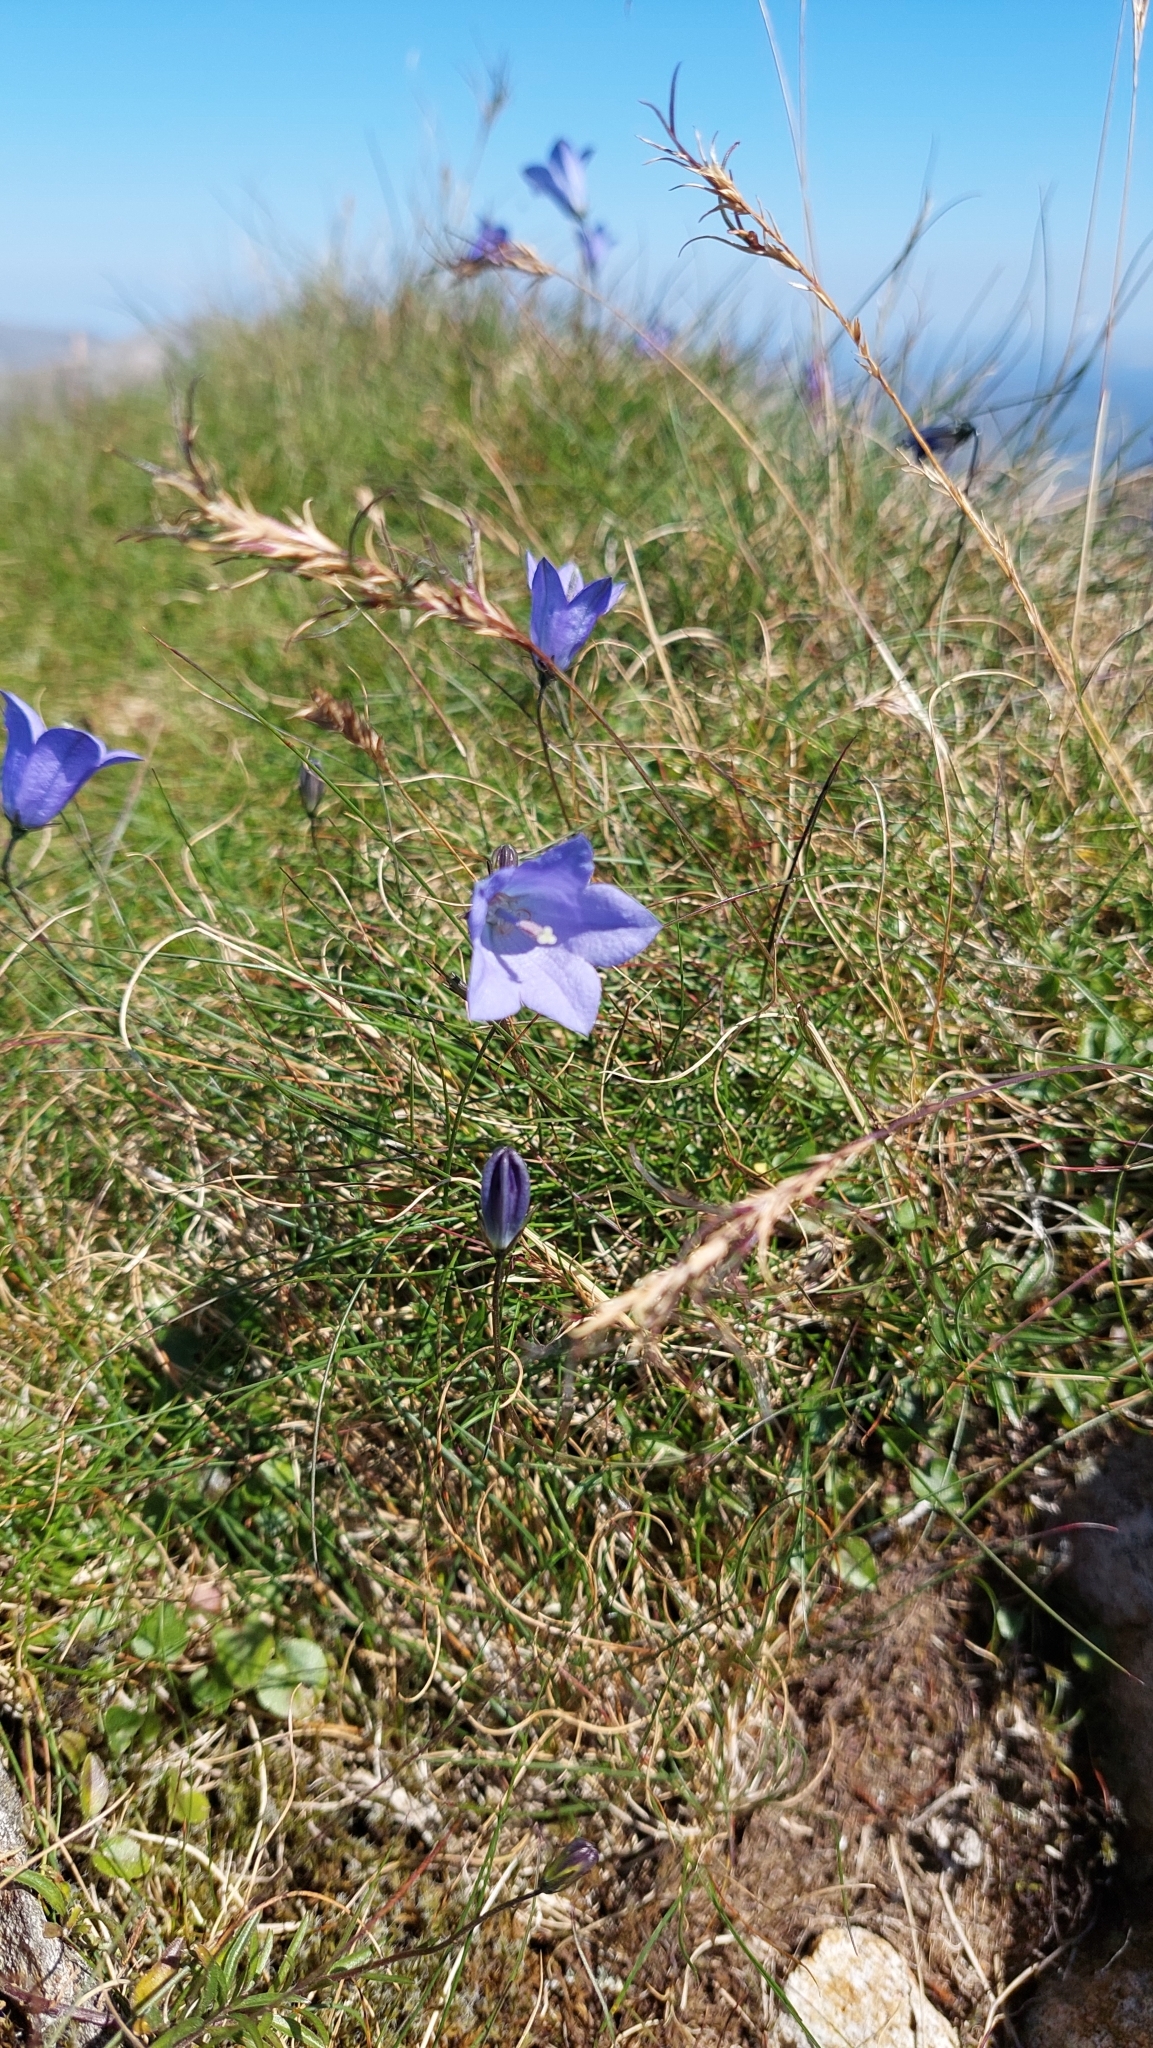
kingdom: Plantae
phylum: Tracheophyta
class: Magnoliopsida
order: Asterales
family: Campanulaceae
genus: Campanula
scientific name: Campanula rotundifolia
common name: Harebell
